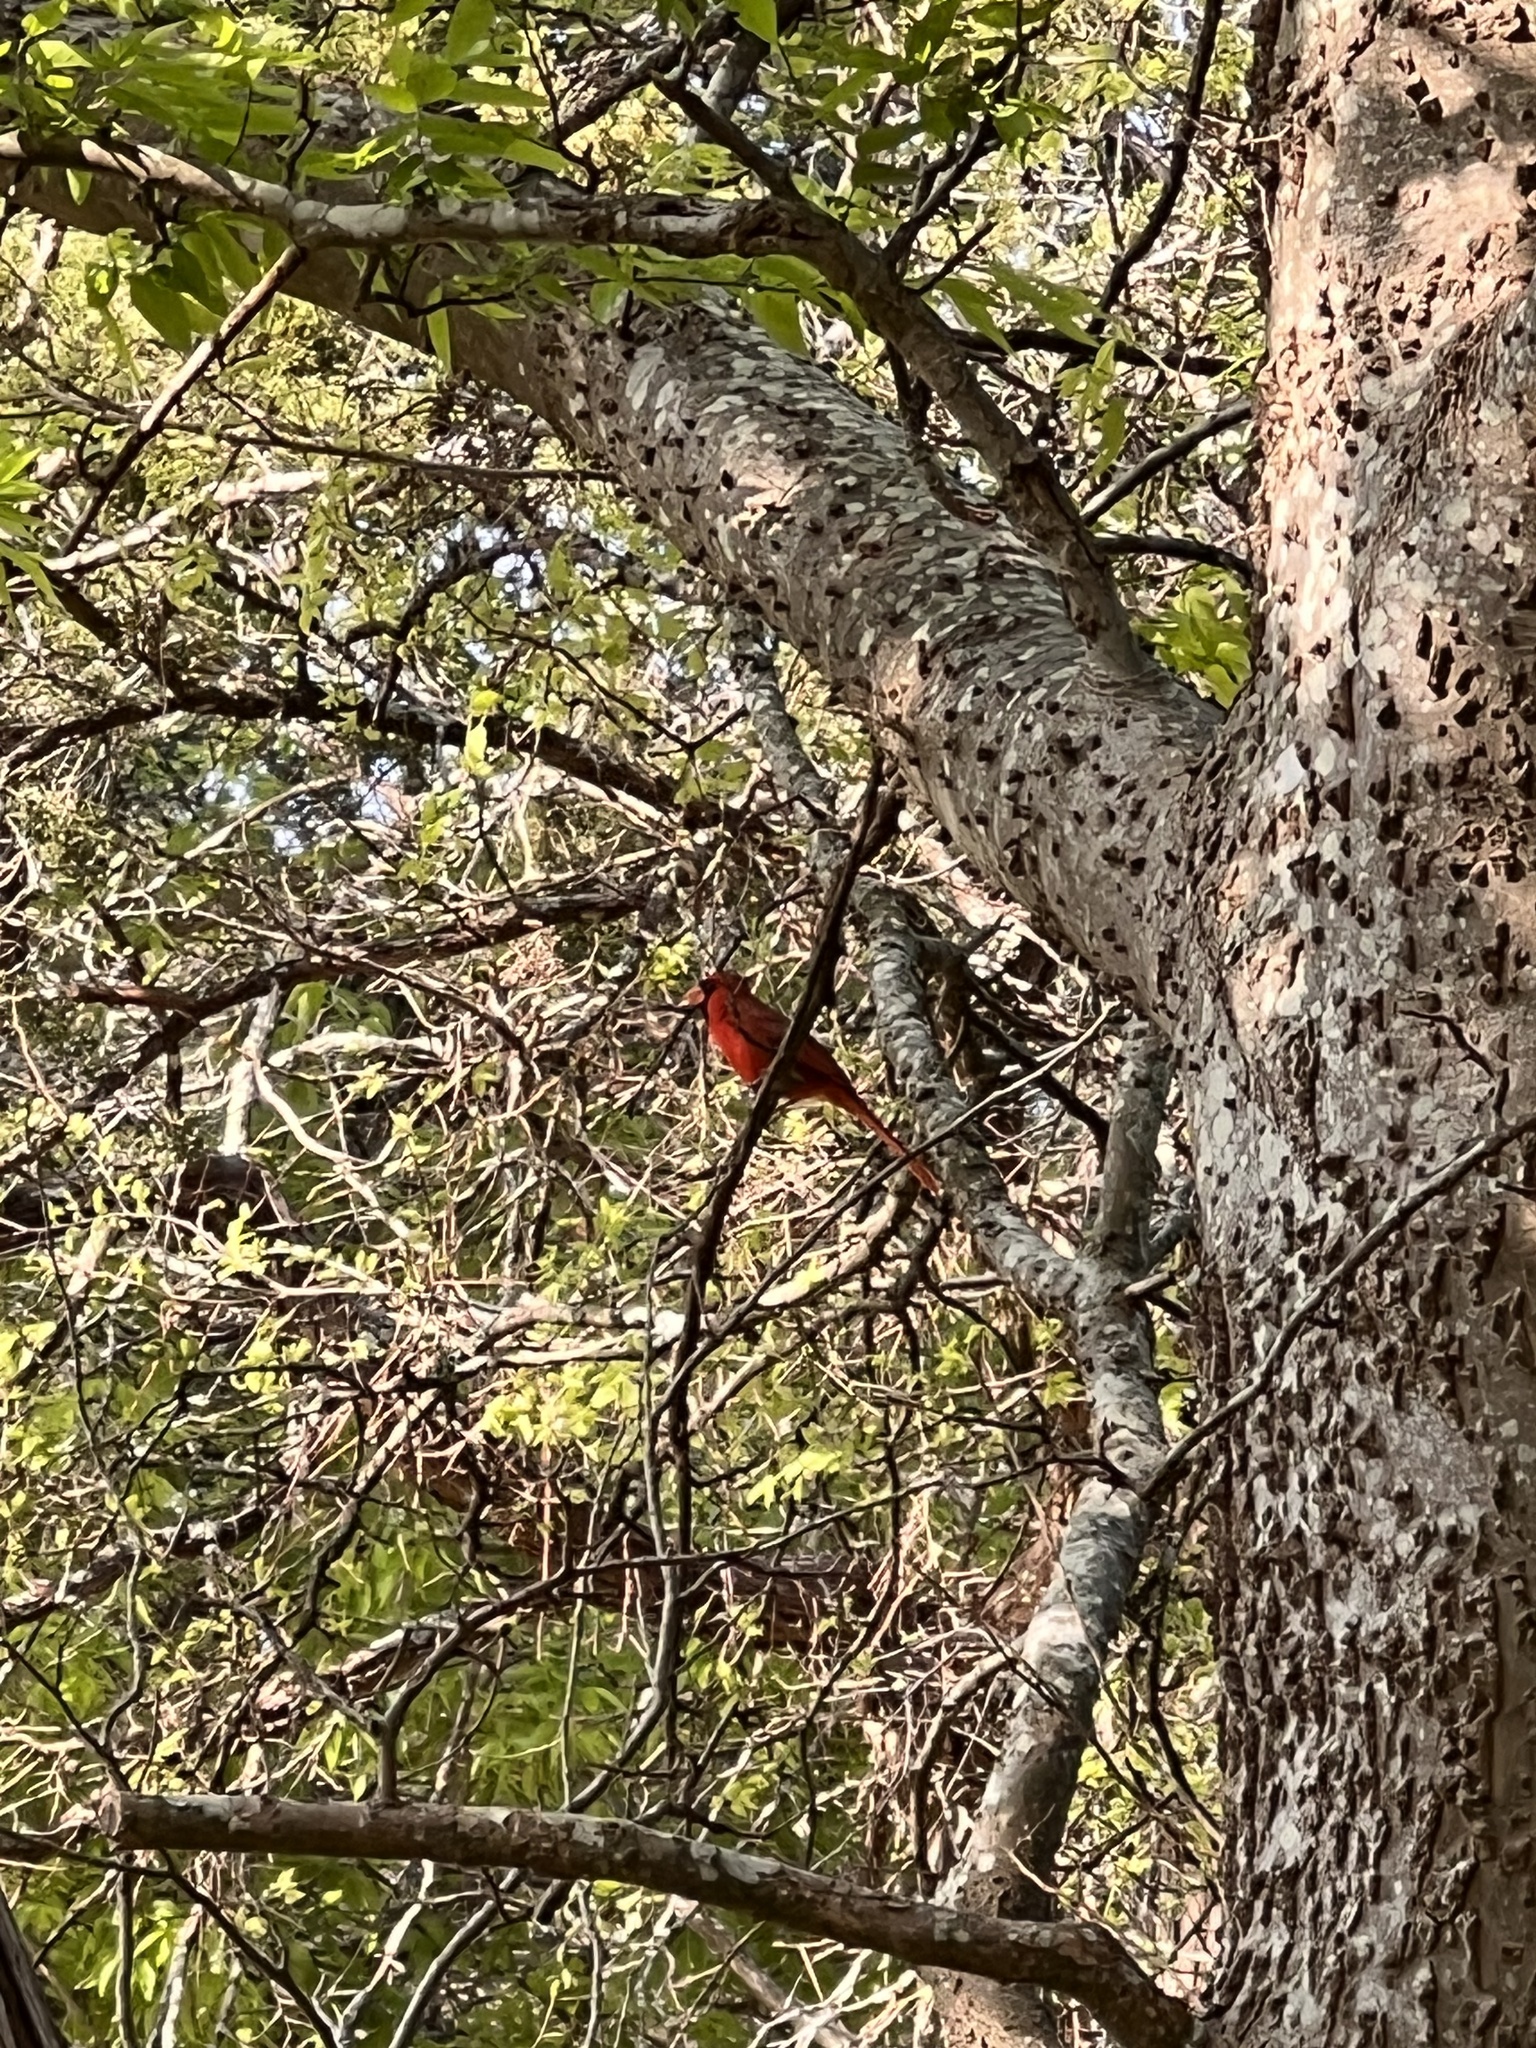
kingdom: Animalia
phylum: Chordata
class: Aves
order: Passeriformes
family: Cardinalidae
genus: Cardinalis
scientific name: Cardinalis cardinalis
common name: Northern cardinal
